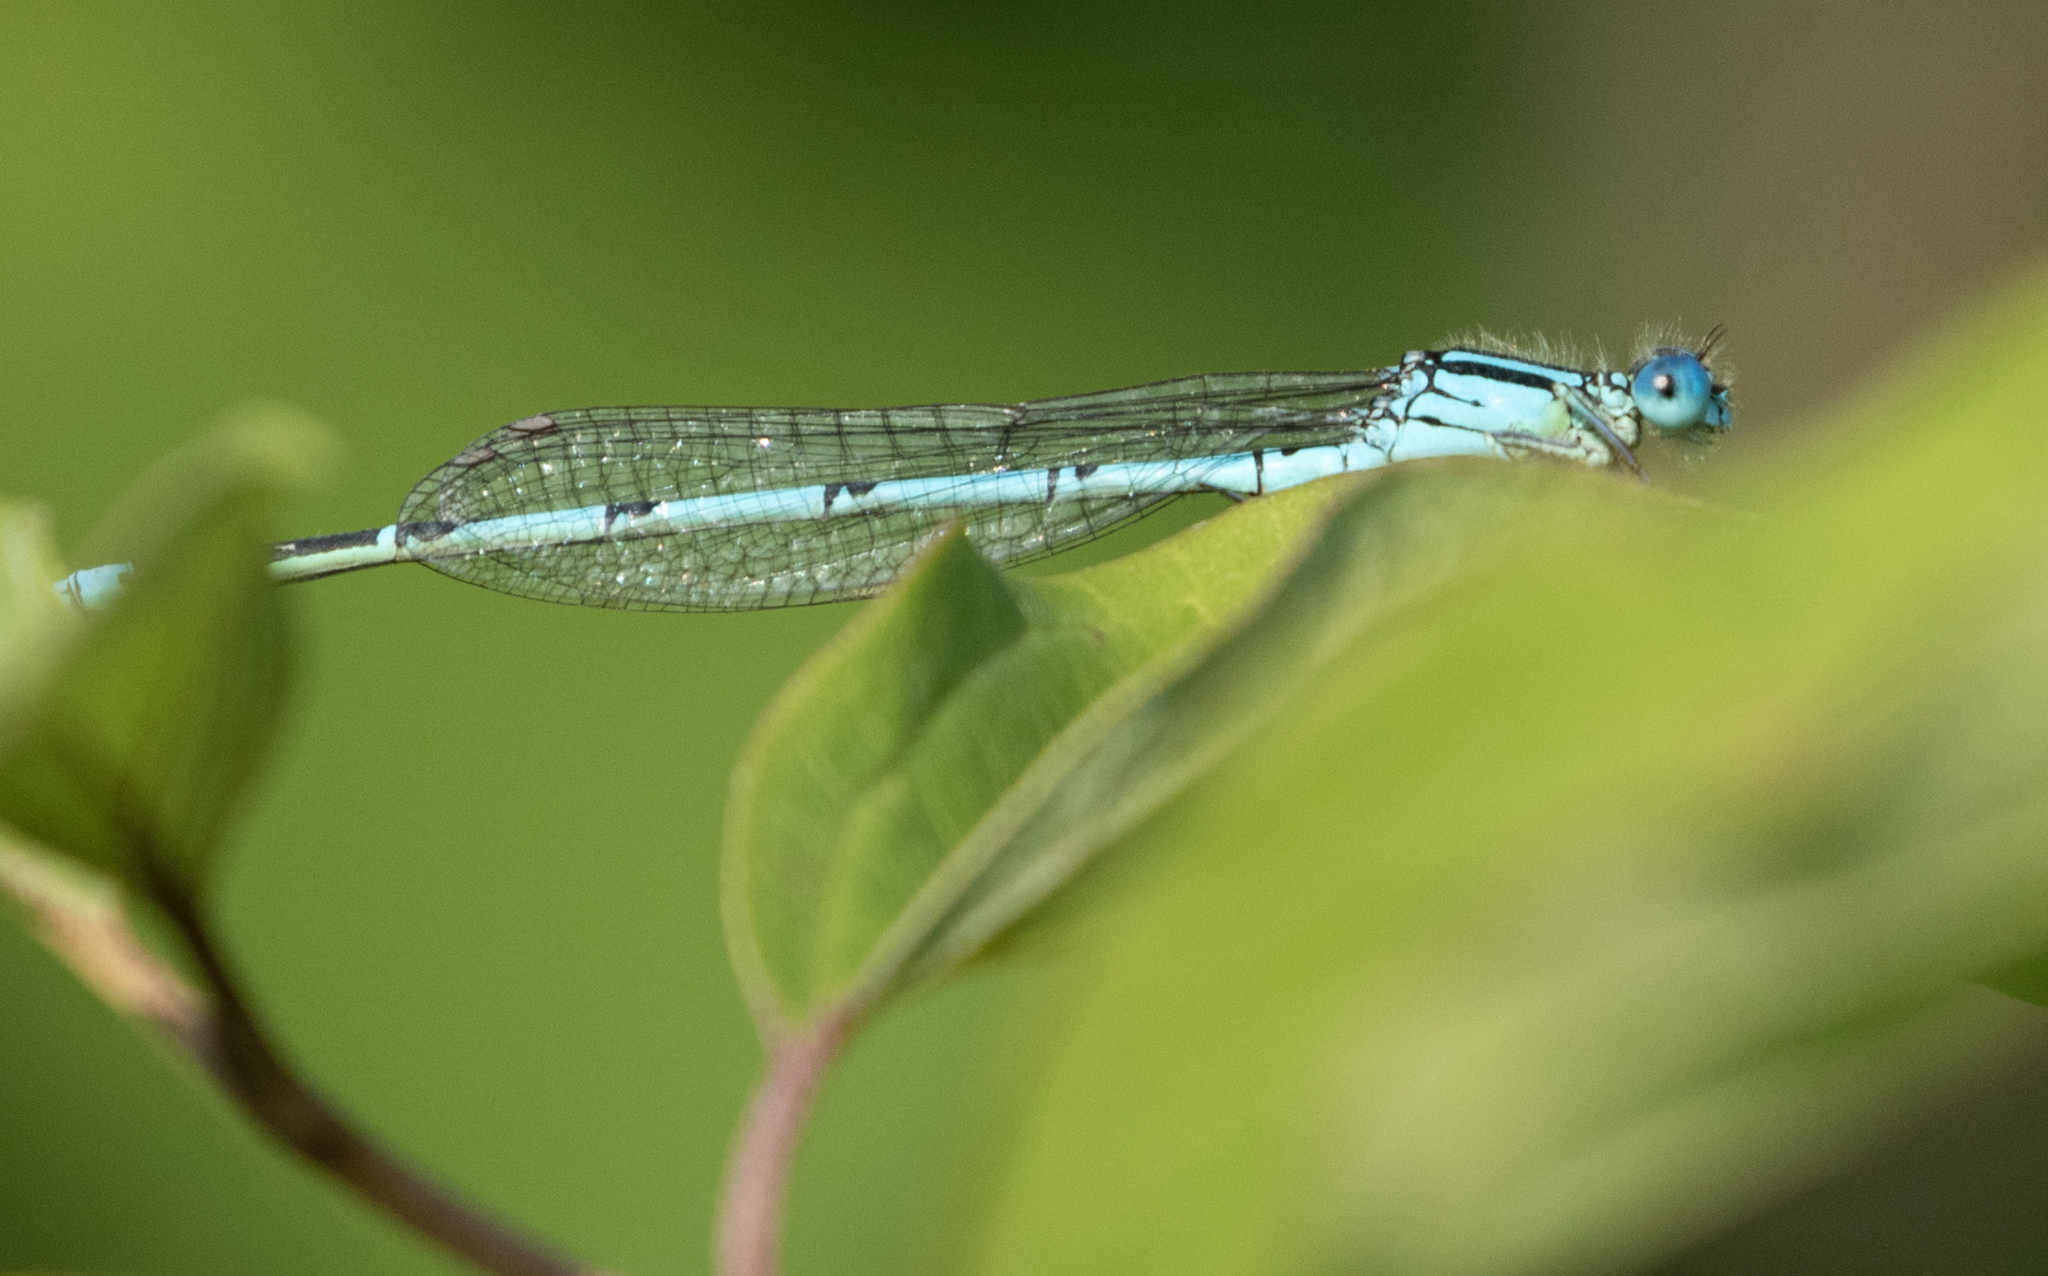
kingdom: Animalia
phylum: Arthropoda
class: Insecta
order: Odonata
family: Coenagrionidae
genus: Erythromma
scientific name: Erythromma lindenii
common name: Blue-eye
